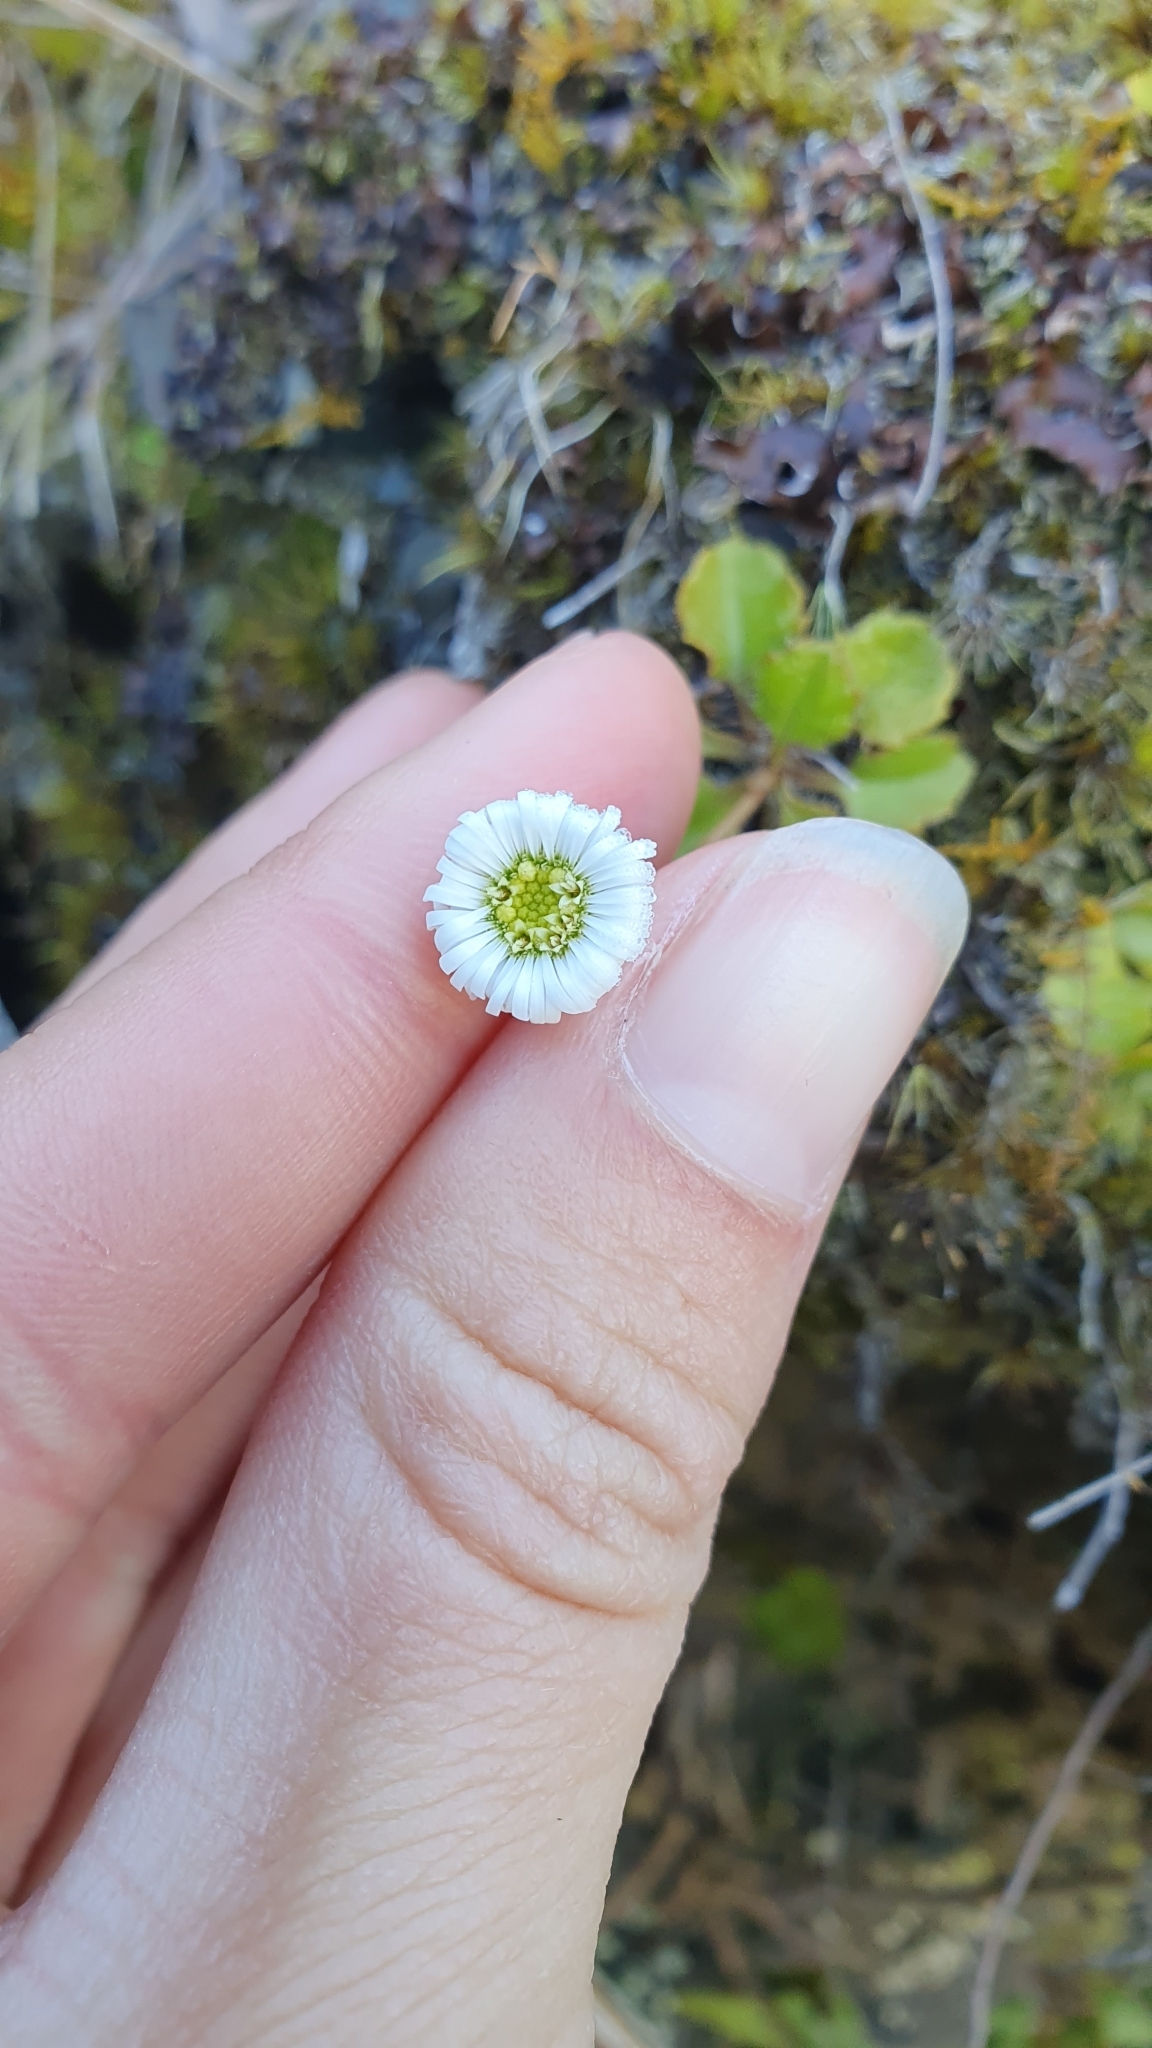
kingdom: Plantae
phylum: Tracheophyta
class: Magnoliopsida
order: Asterales
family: Asteraceae
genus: Lagenophora
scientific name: Lagenophora pumila
